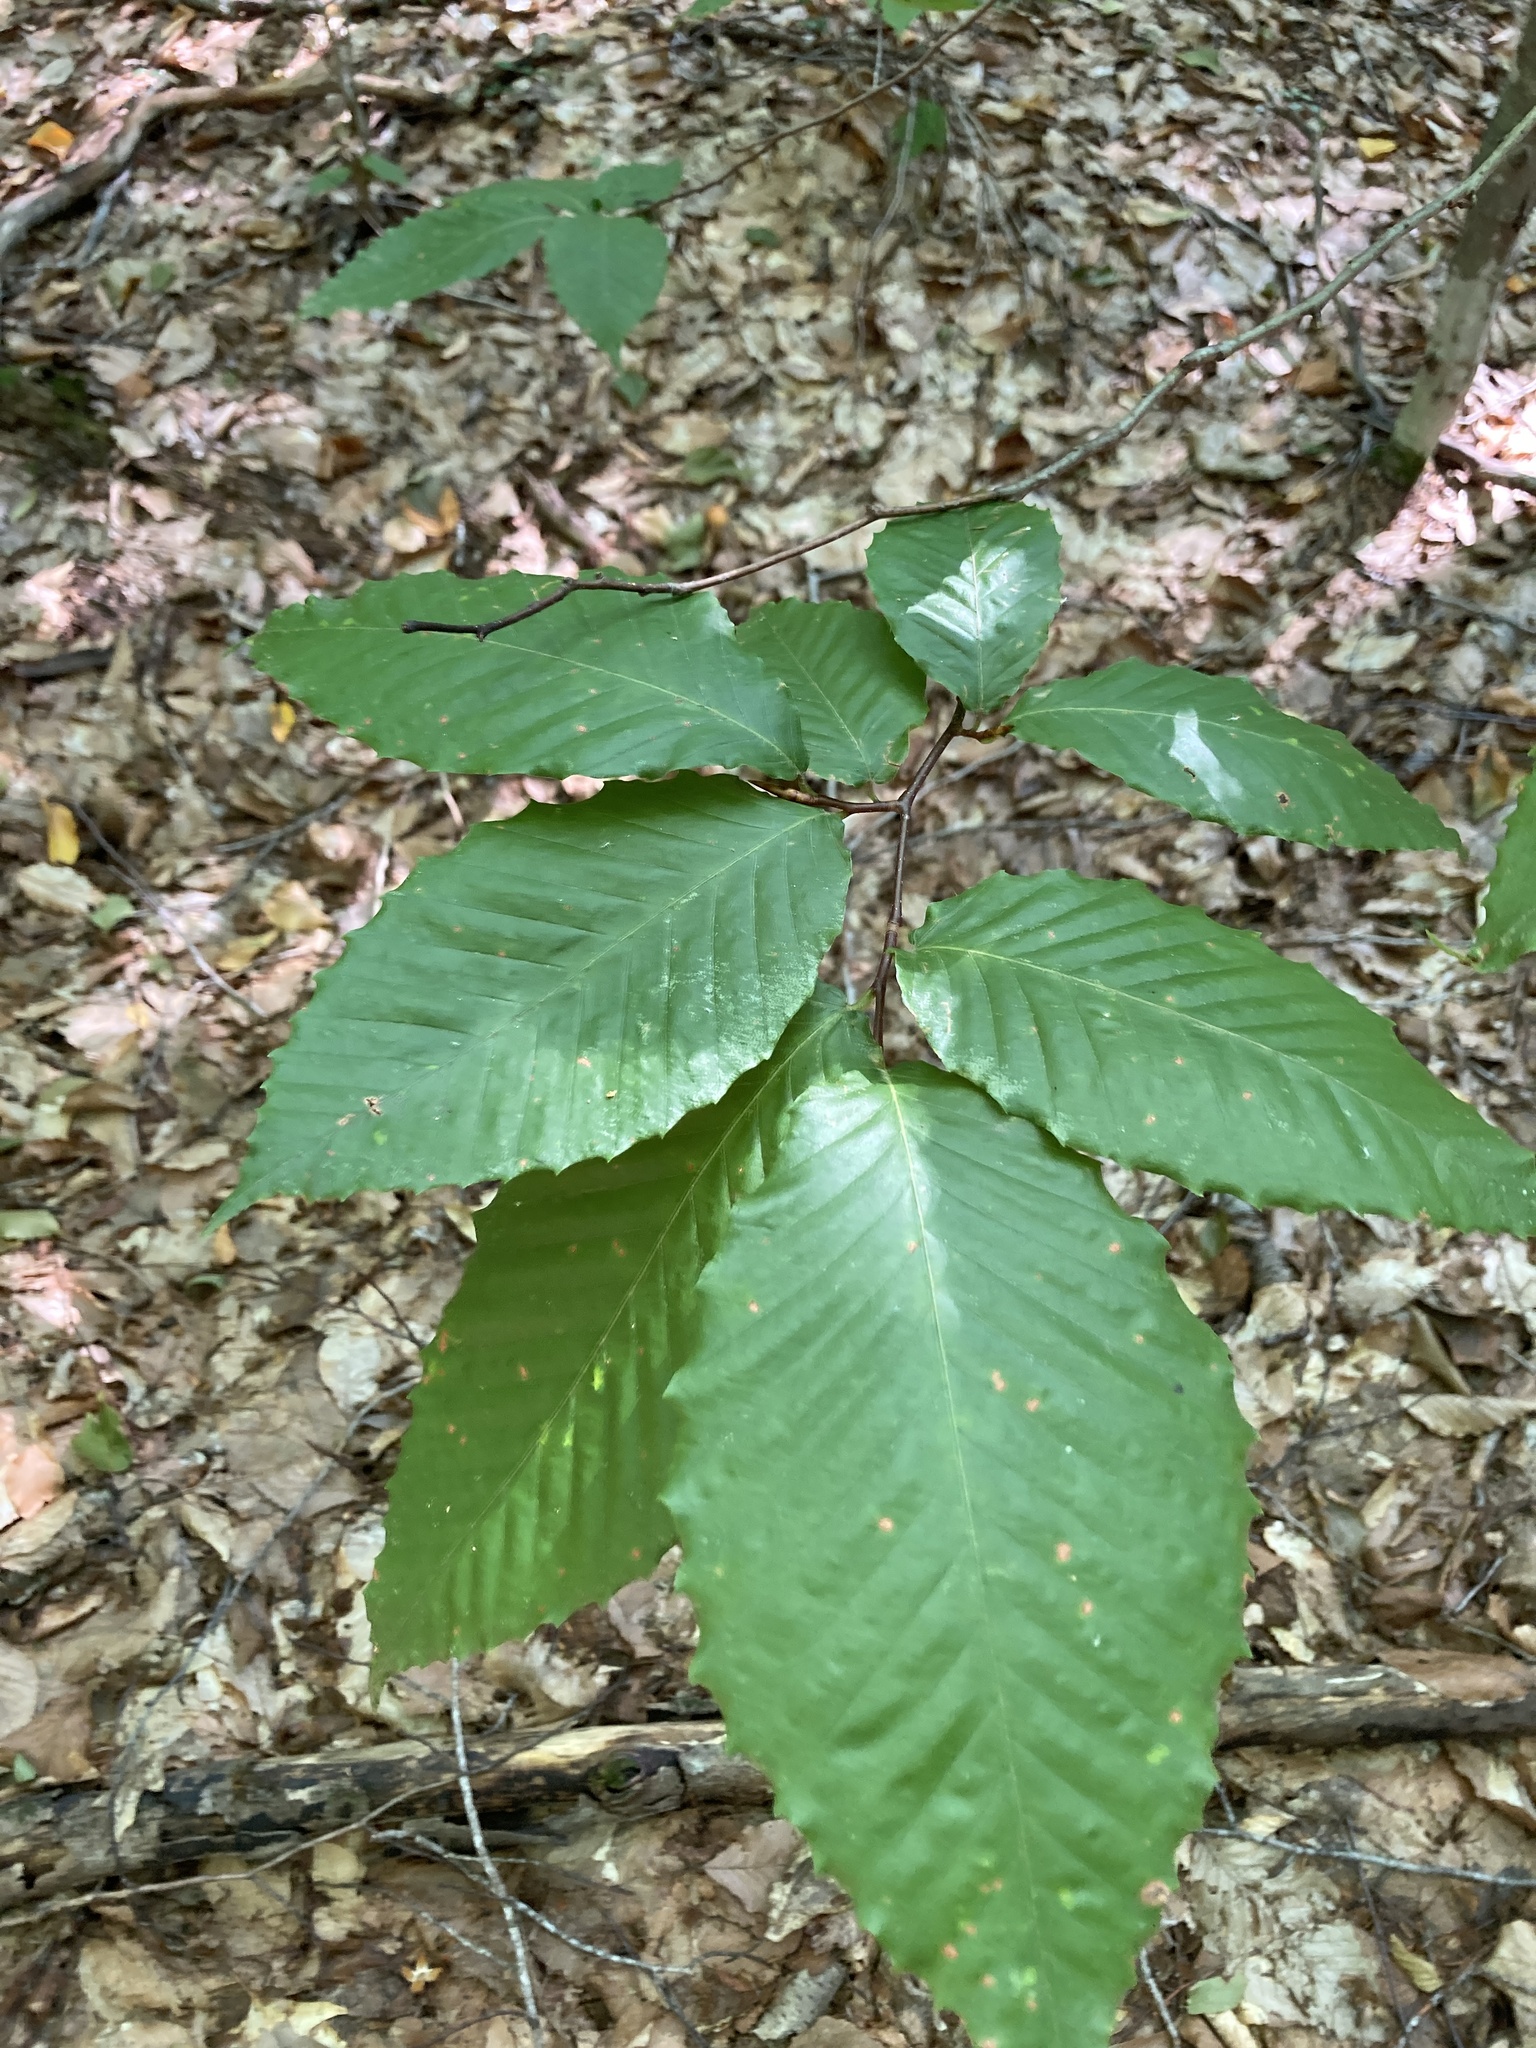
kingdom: Plantae
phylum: Tracheophyta
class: Magnoliopsida
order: Fagales
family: Fagaceae
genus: Fagus
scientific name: Fagus grandifolia
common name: American beech
